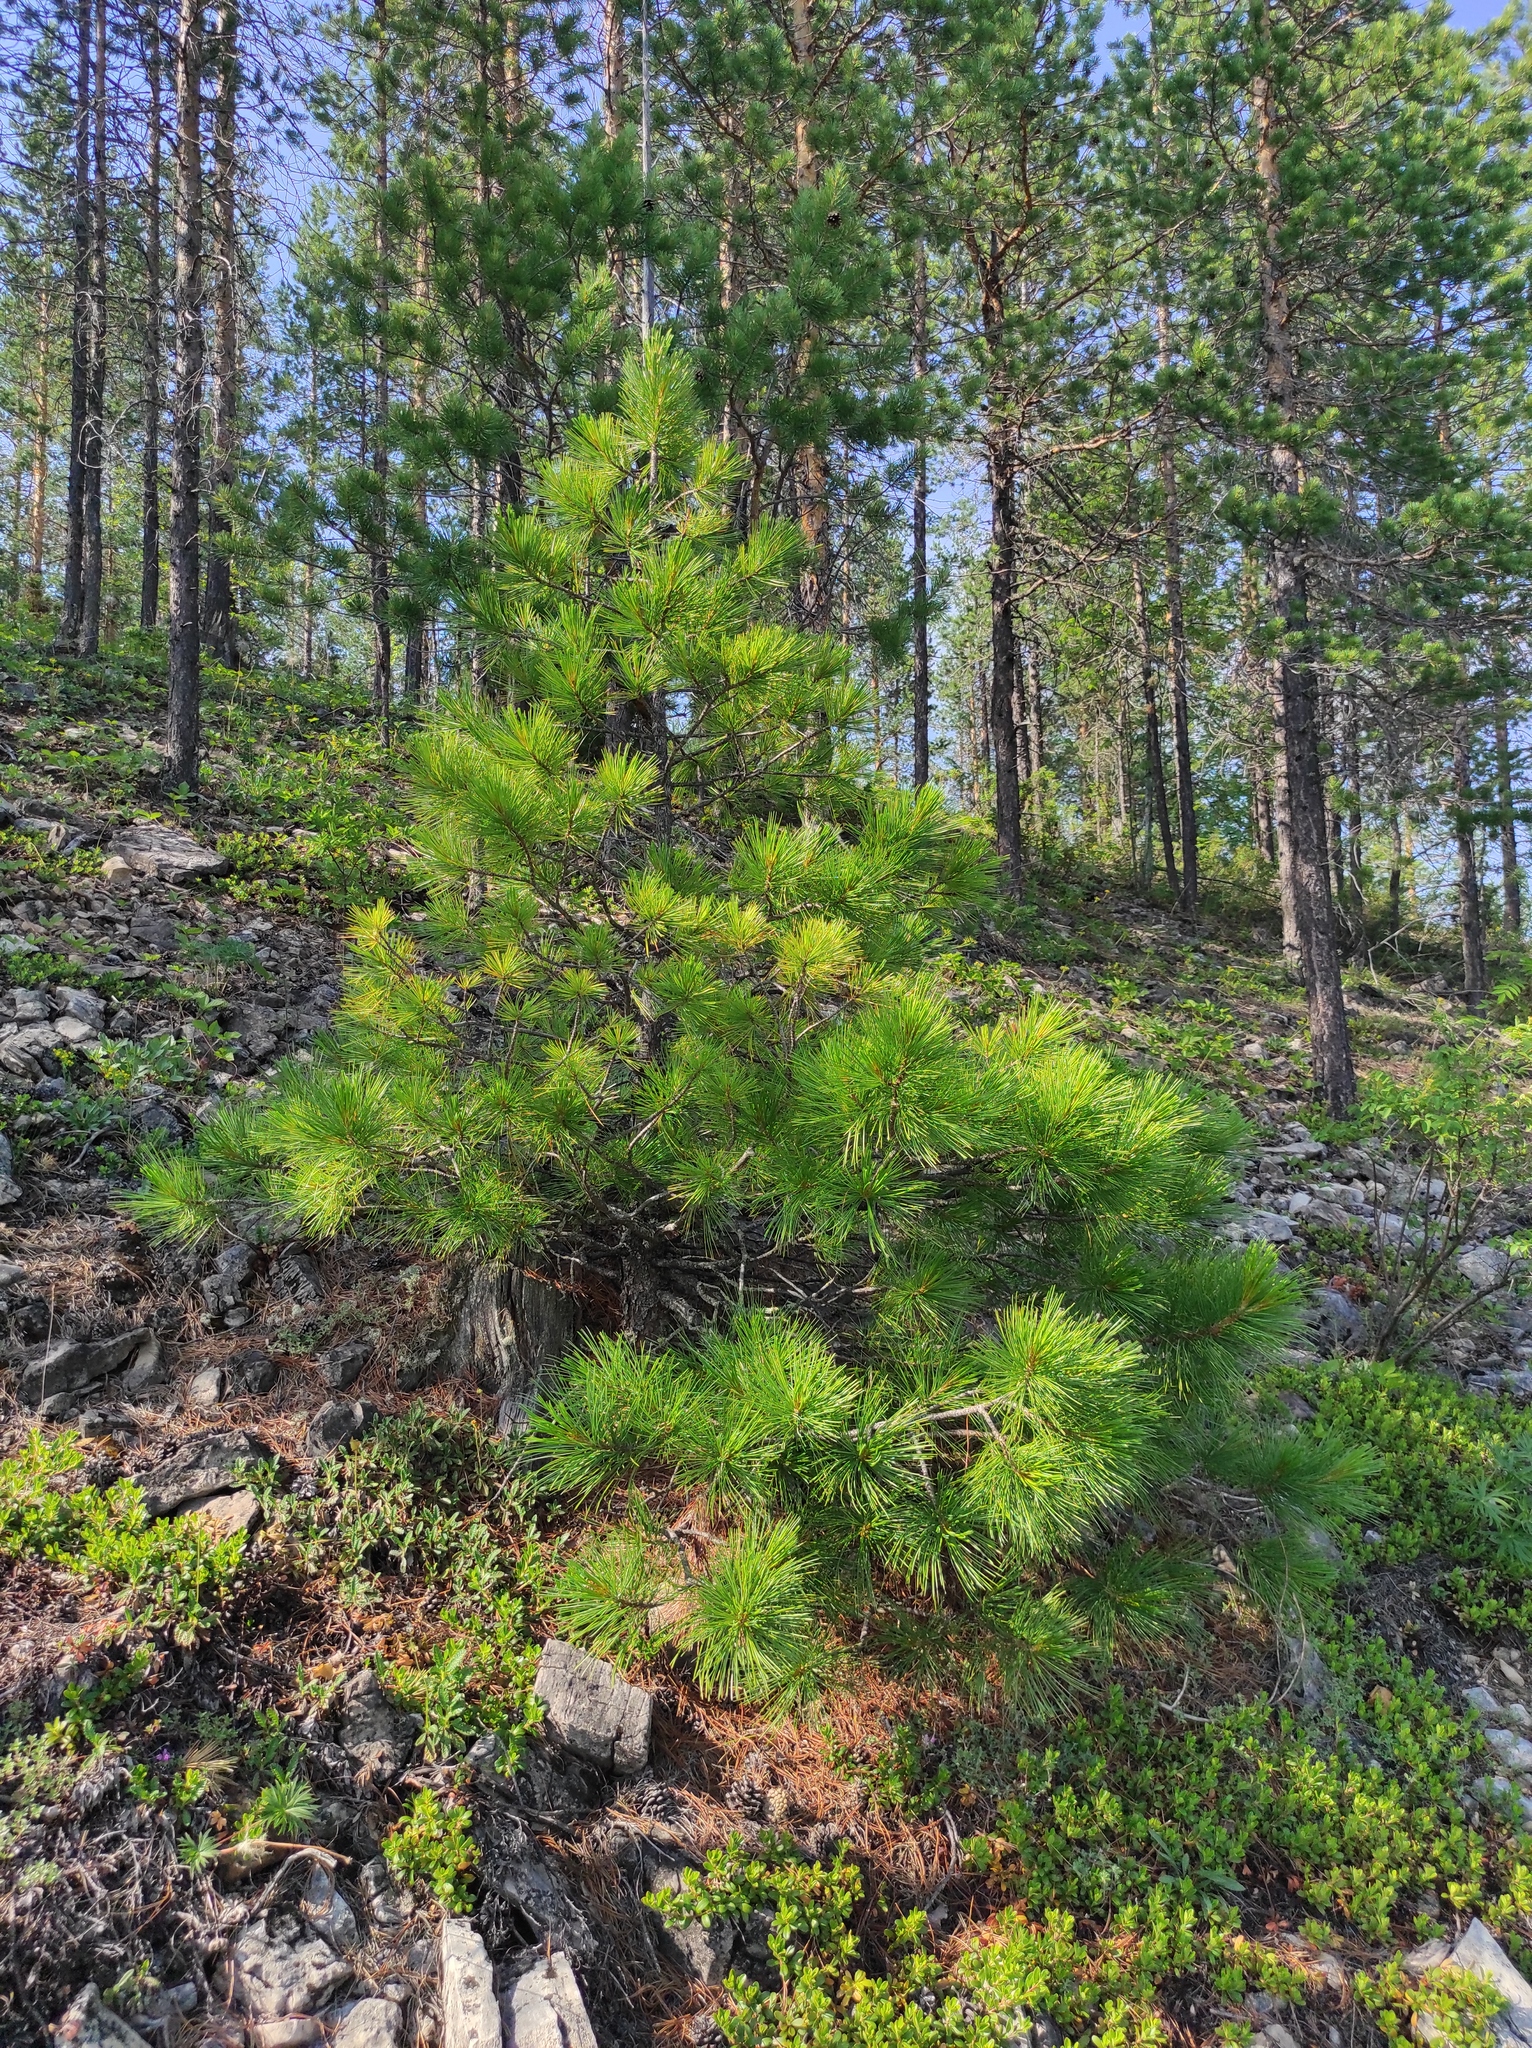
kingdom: Plantae
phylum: Tracheophyta
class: Pinopsida
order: Pinales
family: Pinaceae
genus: Pinus
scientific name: Pinus sibirica
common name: Siberian pine
